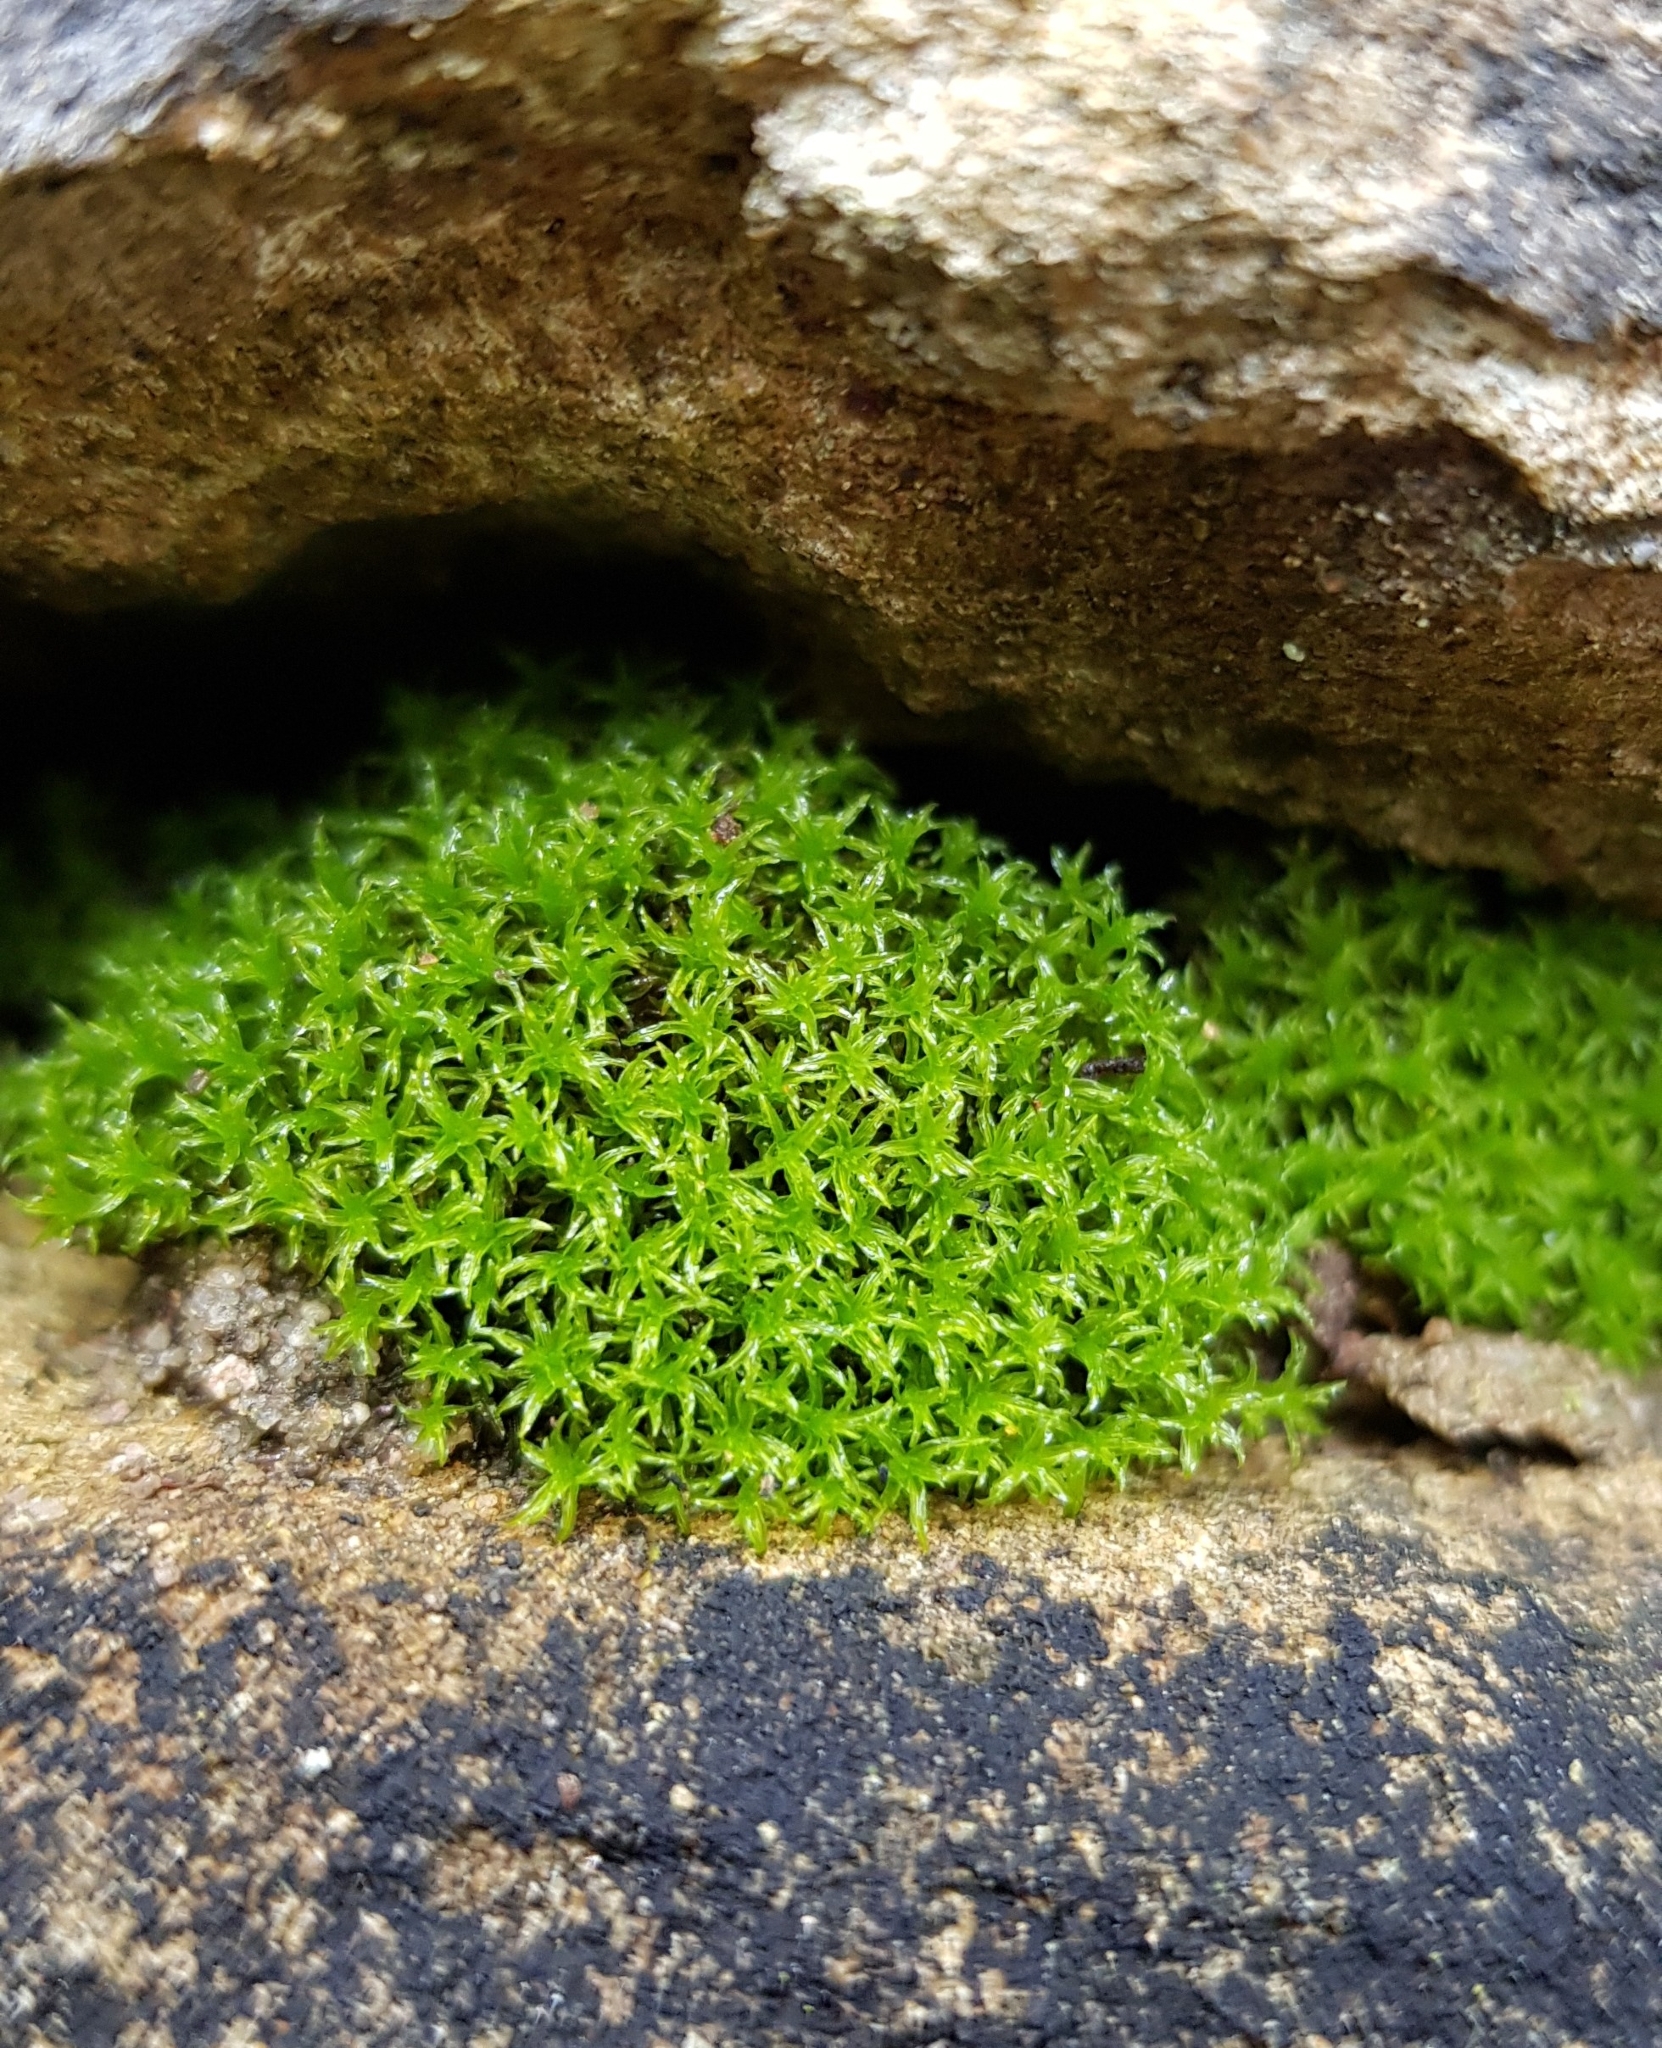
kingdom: Plantae
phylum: Bryophyta
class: Bryopsida
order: Pottiales
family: Pottiaceae
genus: Streblotrichum
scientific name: Streblotrichum convolutum
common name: Lesser bird's-claw beard-moss
